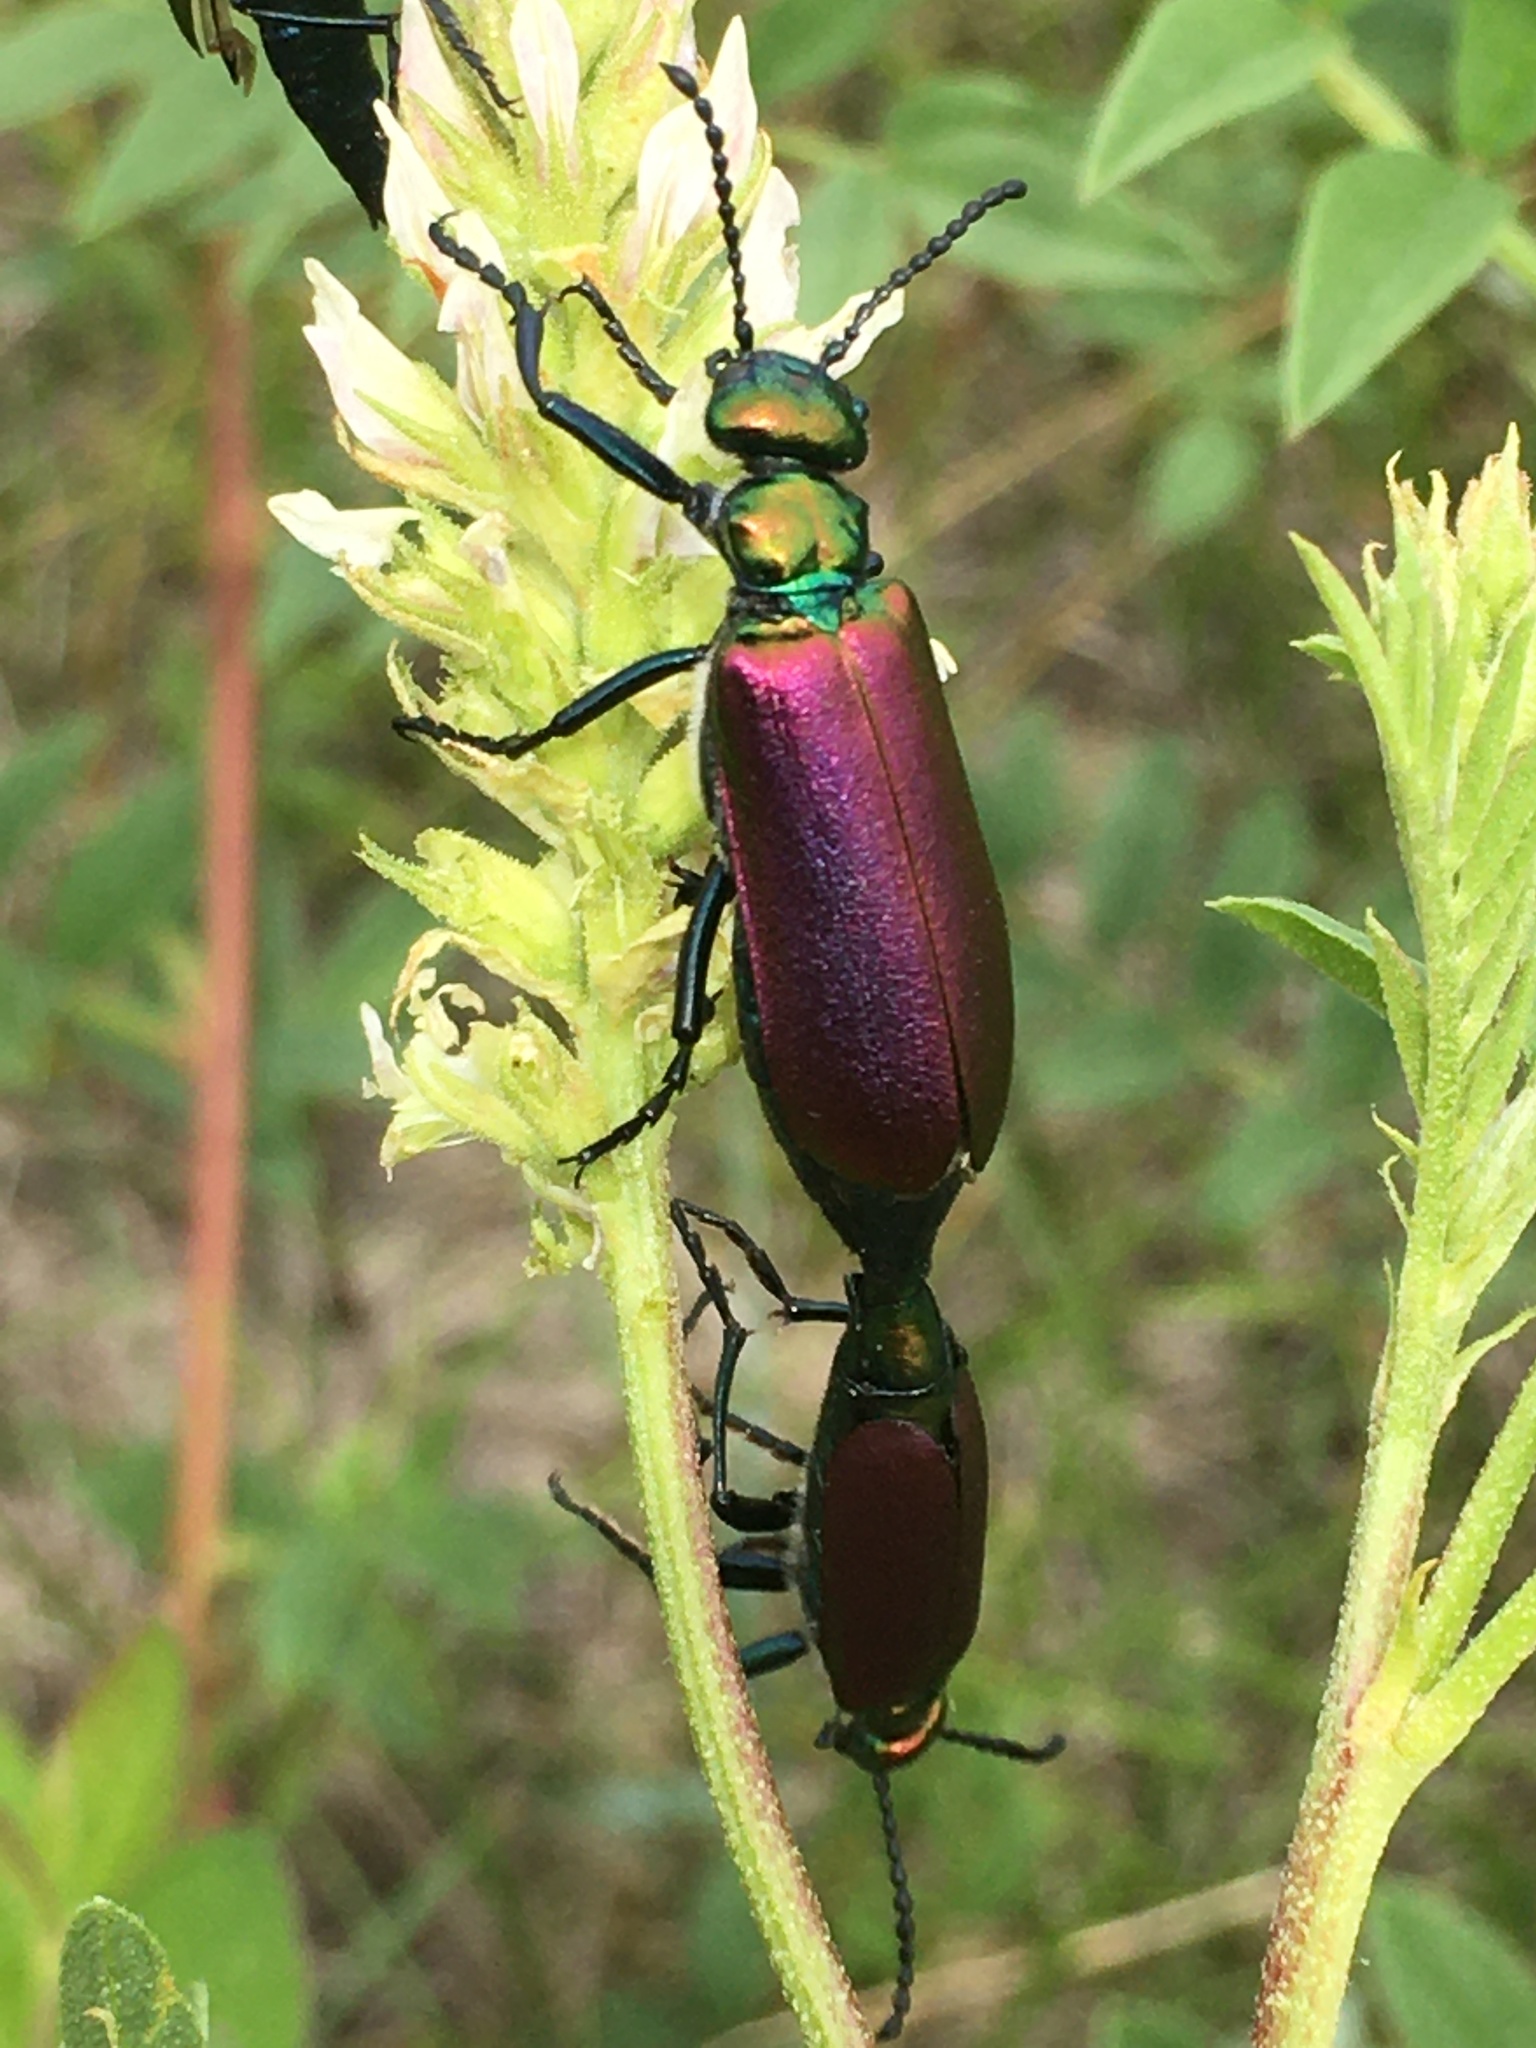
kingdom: Animalia
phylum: Arthropoda
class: Insecta
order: Coleoptera
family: Meloidae
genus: Lytta
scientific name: Lytta nuttallii
